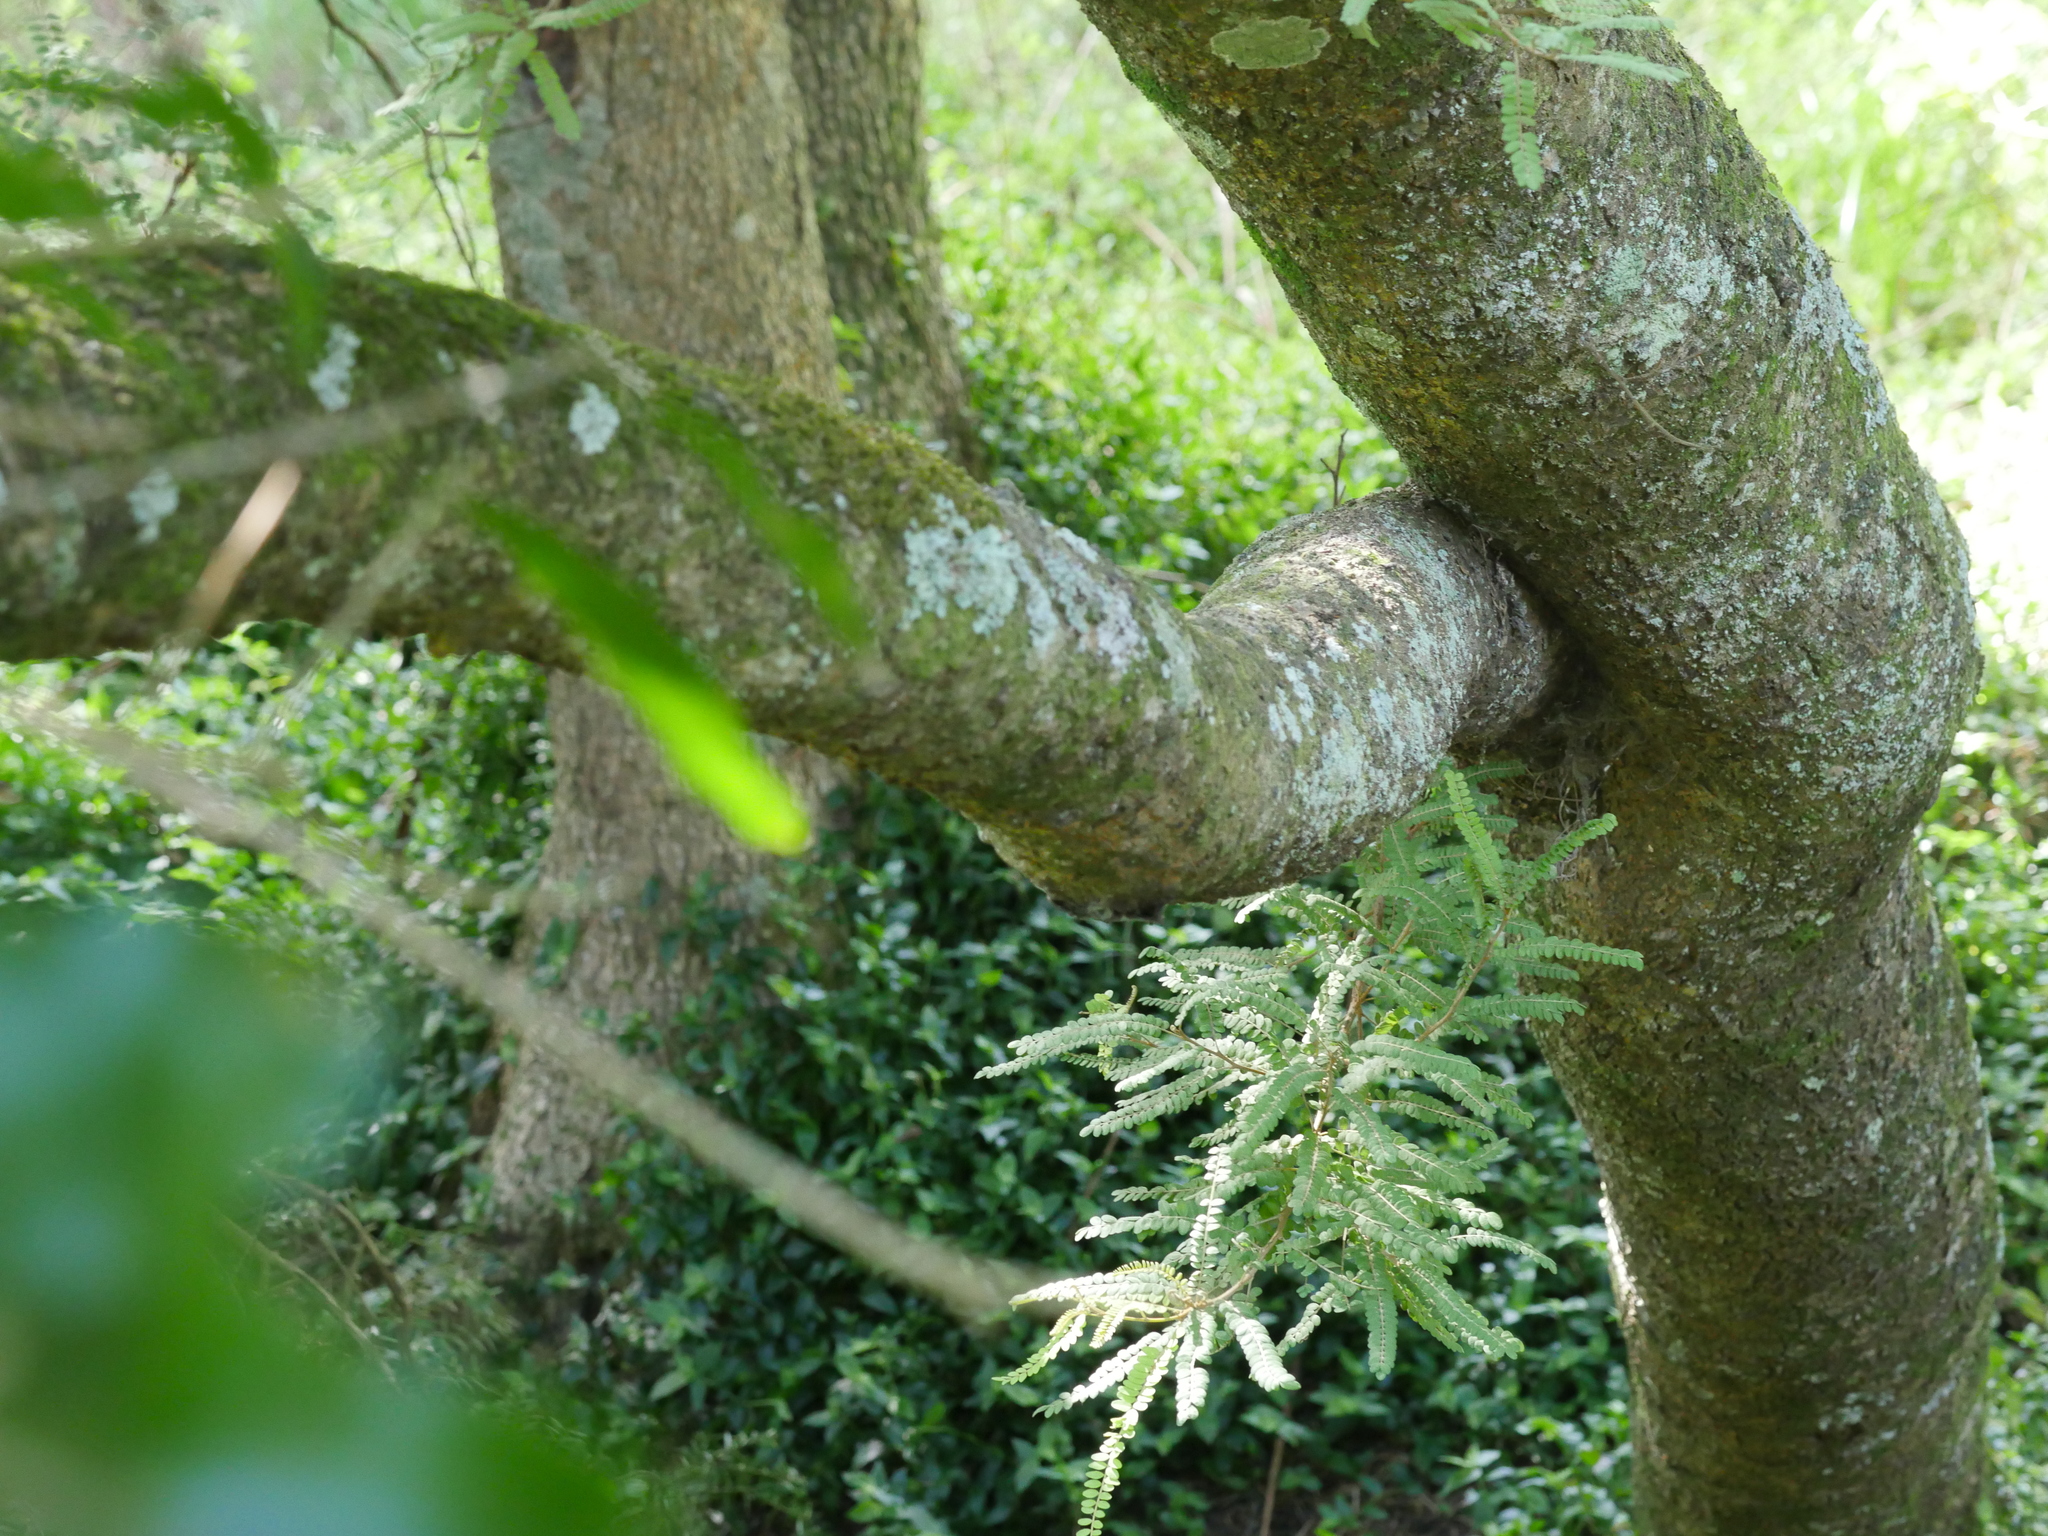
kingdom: Plantae
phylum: Tracheophyta
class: Magnoliopsida
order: Fabales
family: Fabaceae
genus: Sophora
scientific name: Sophora chathamica
